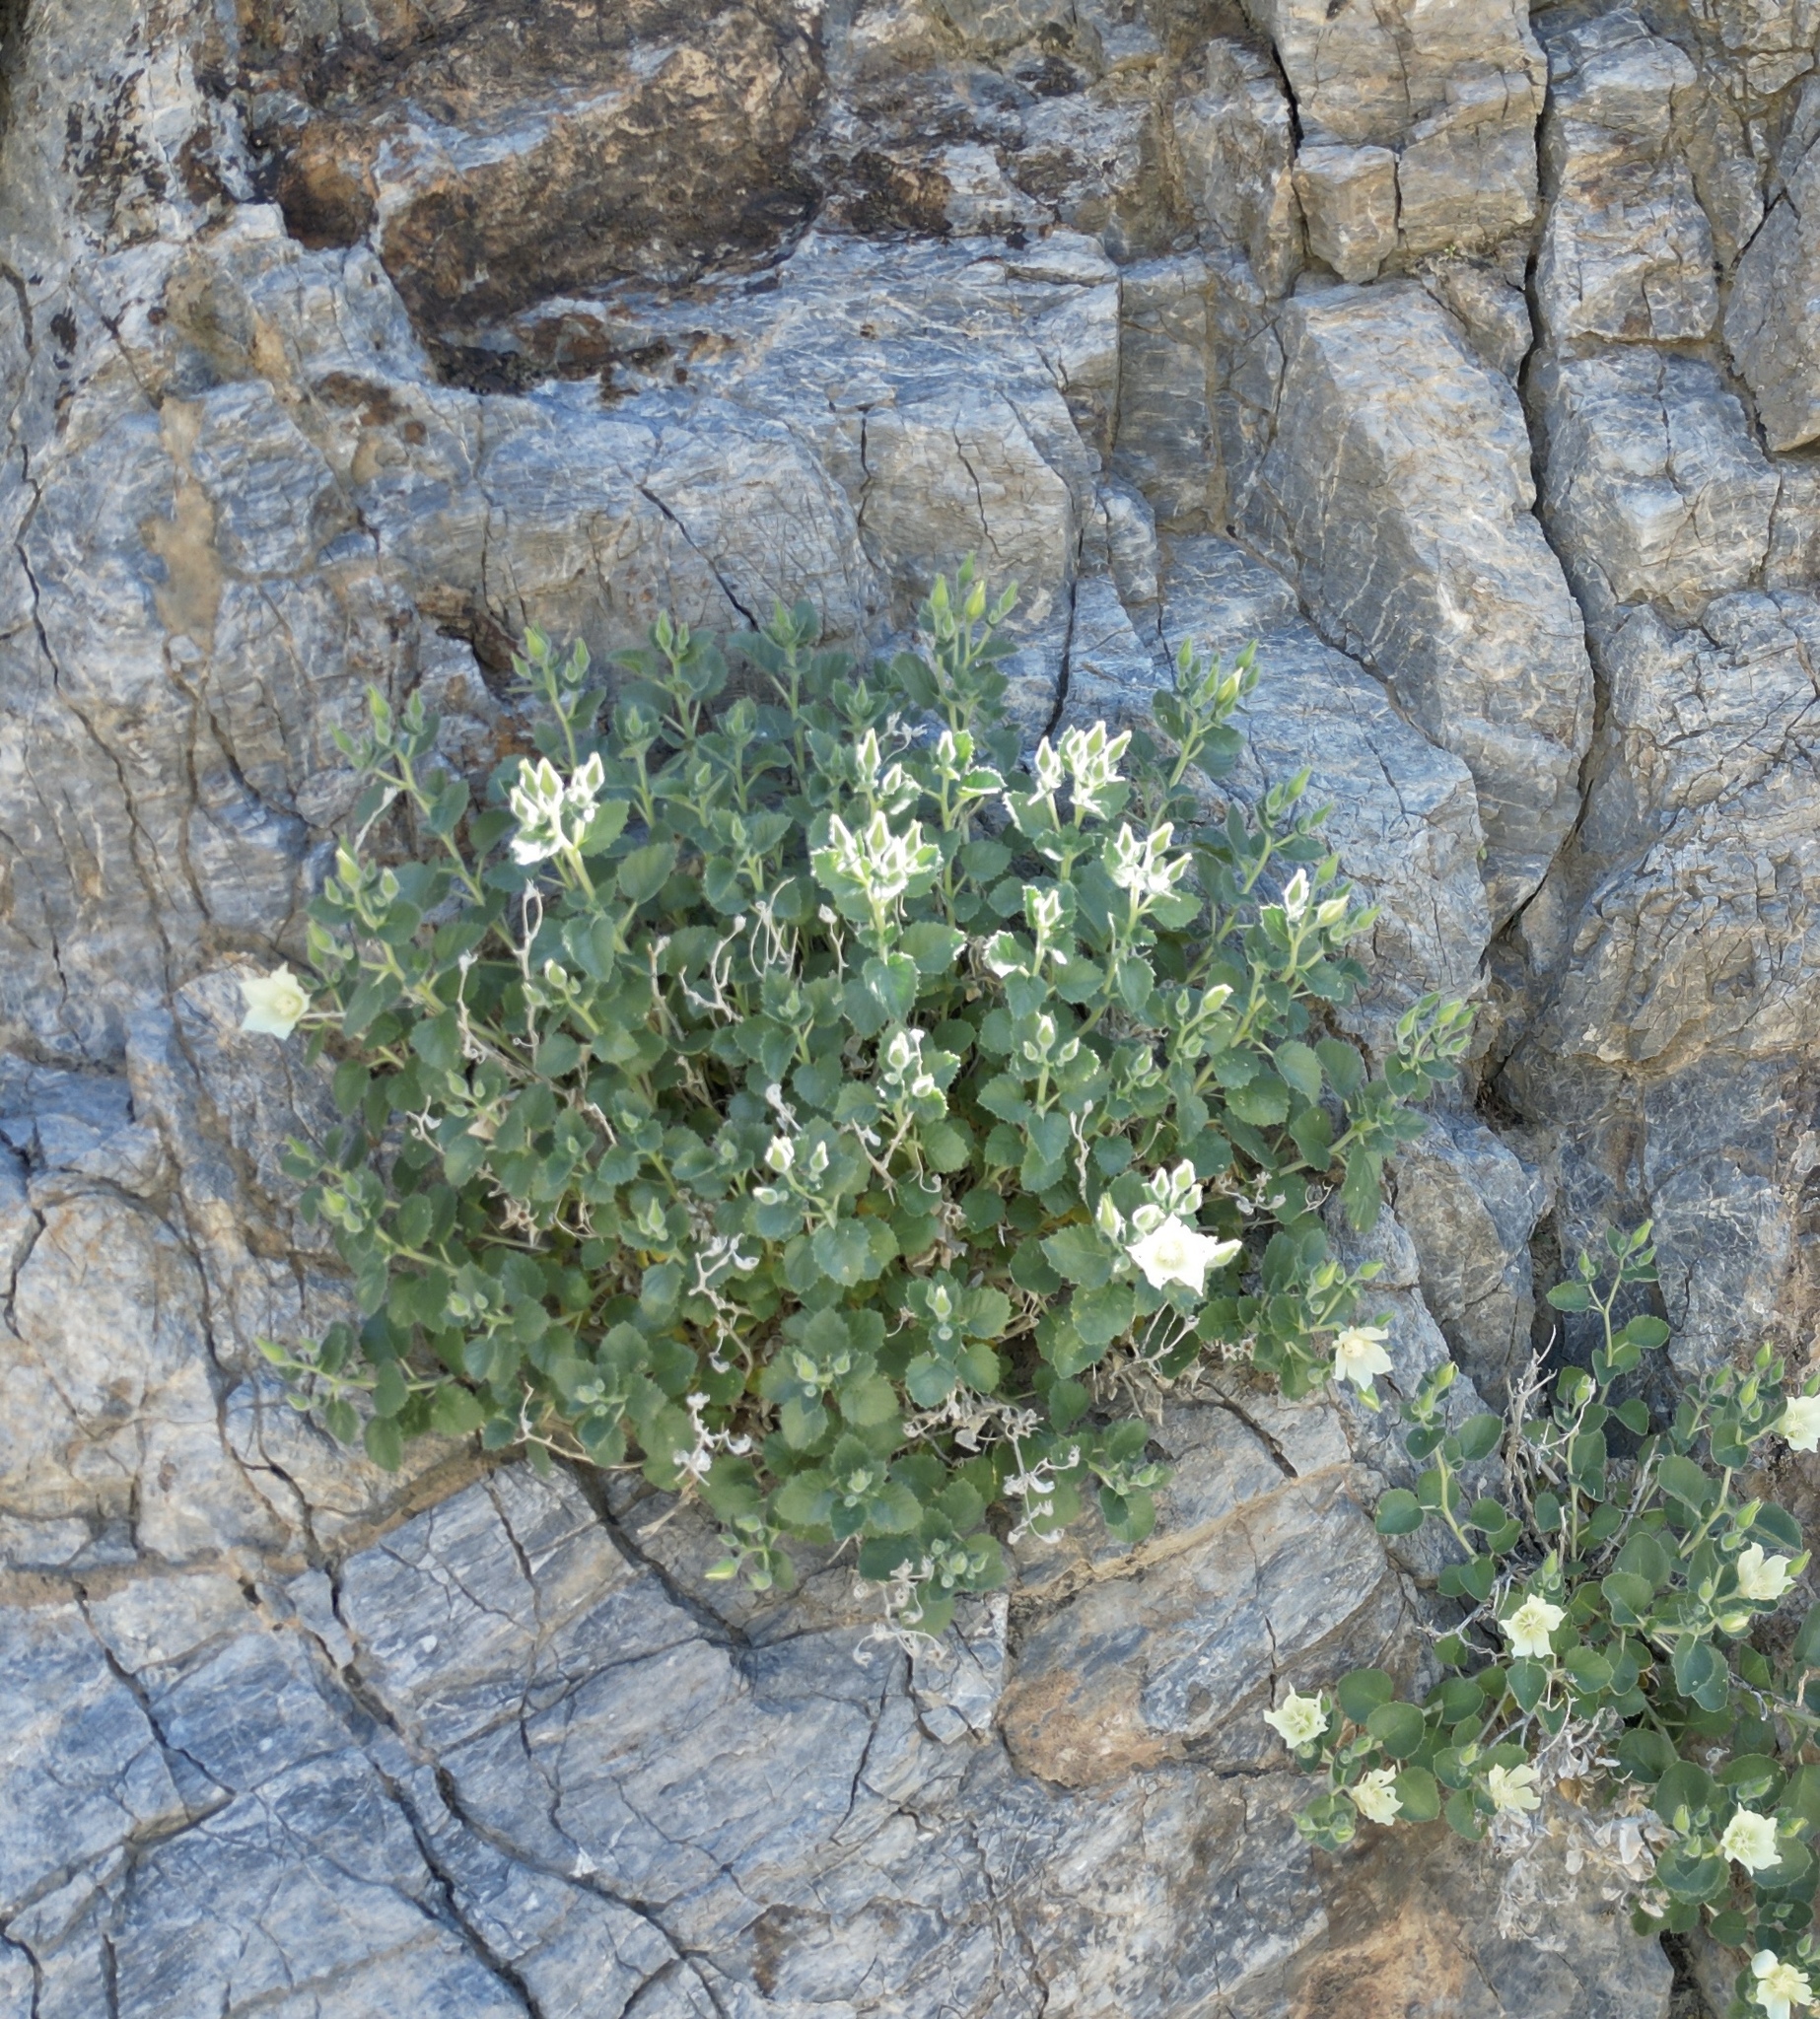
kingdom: Plantae
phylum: Tracheophyta
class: Magnoliopsida
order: Cornales
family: Loasaceae
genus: Eucnide
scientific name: Eucnide urens
